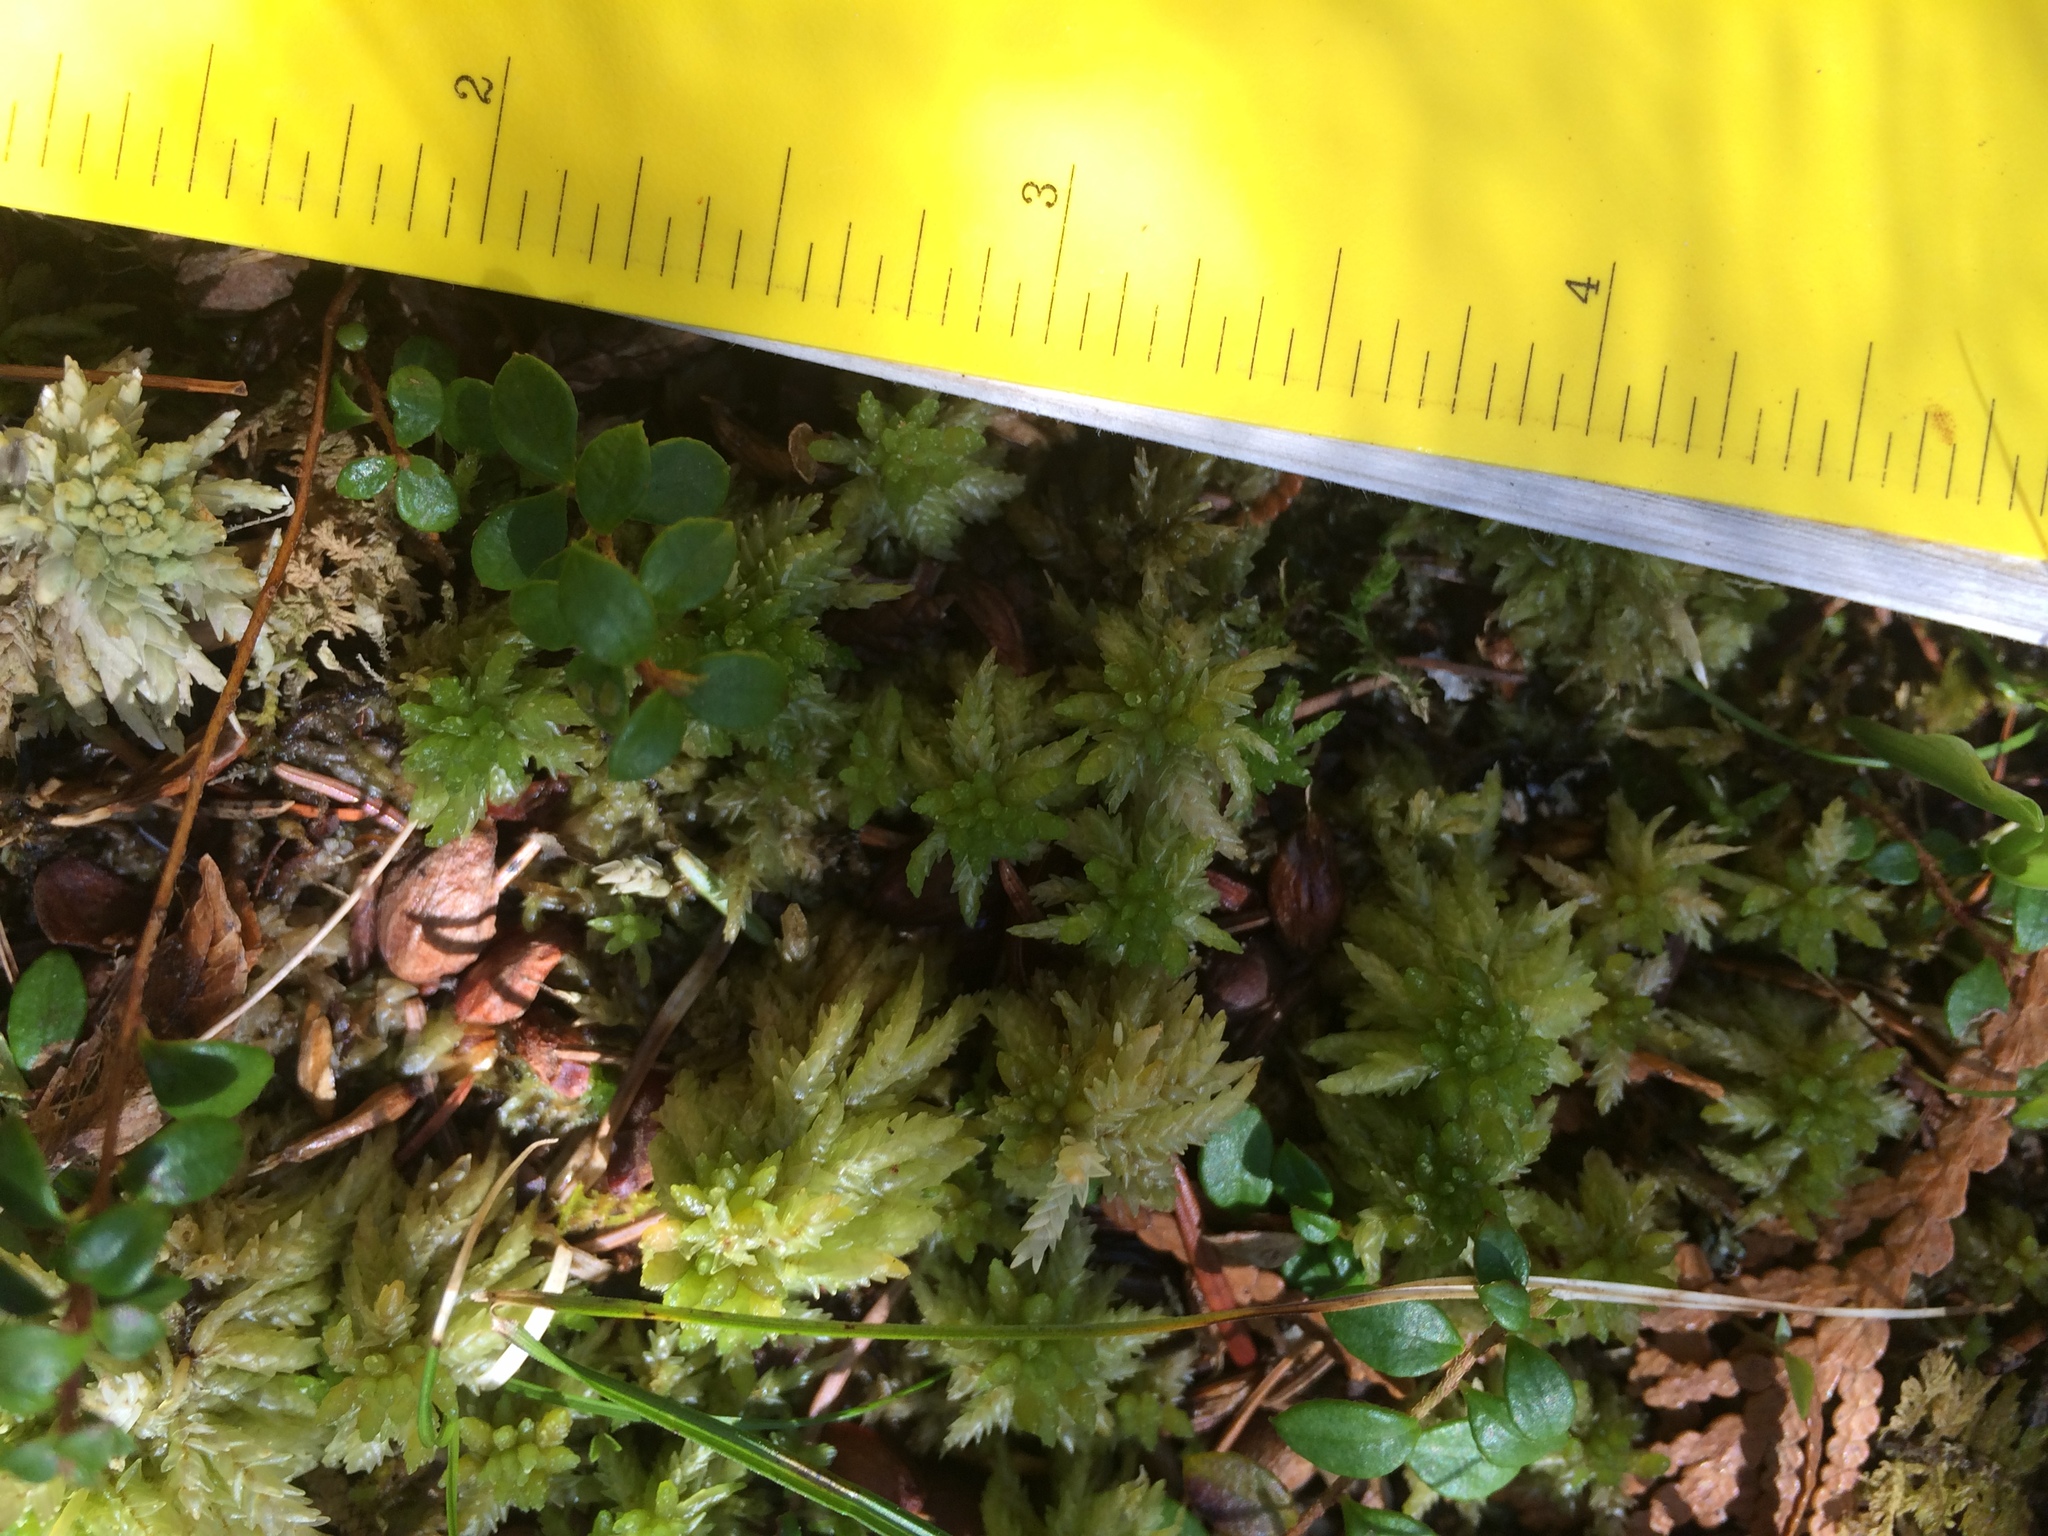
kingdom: Plantae
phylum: Tracheophyta
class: Magnoliopsida
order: Ericales
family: Ericaceae
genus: Gaultheria
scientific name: Gaultheria hispidula
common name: Cancer wintergreen
